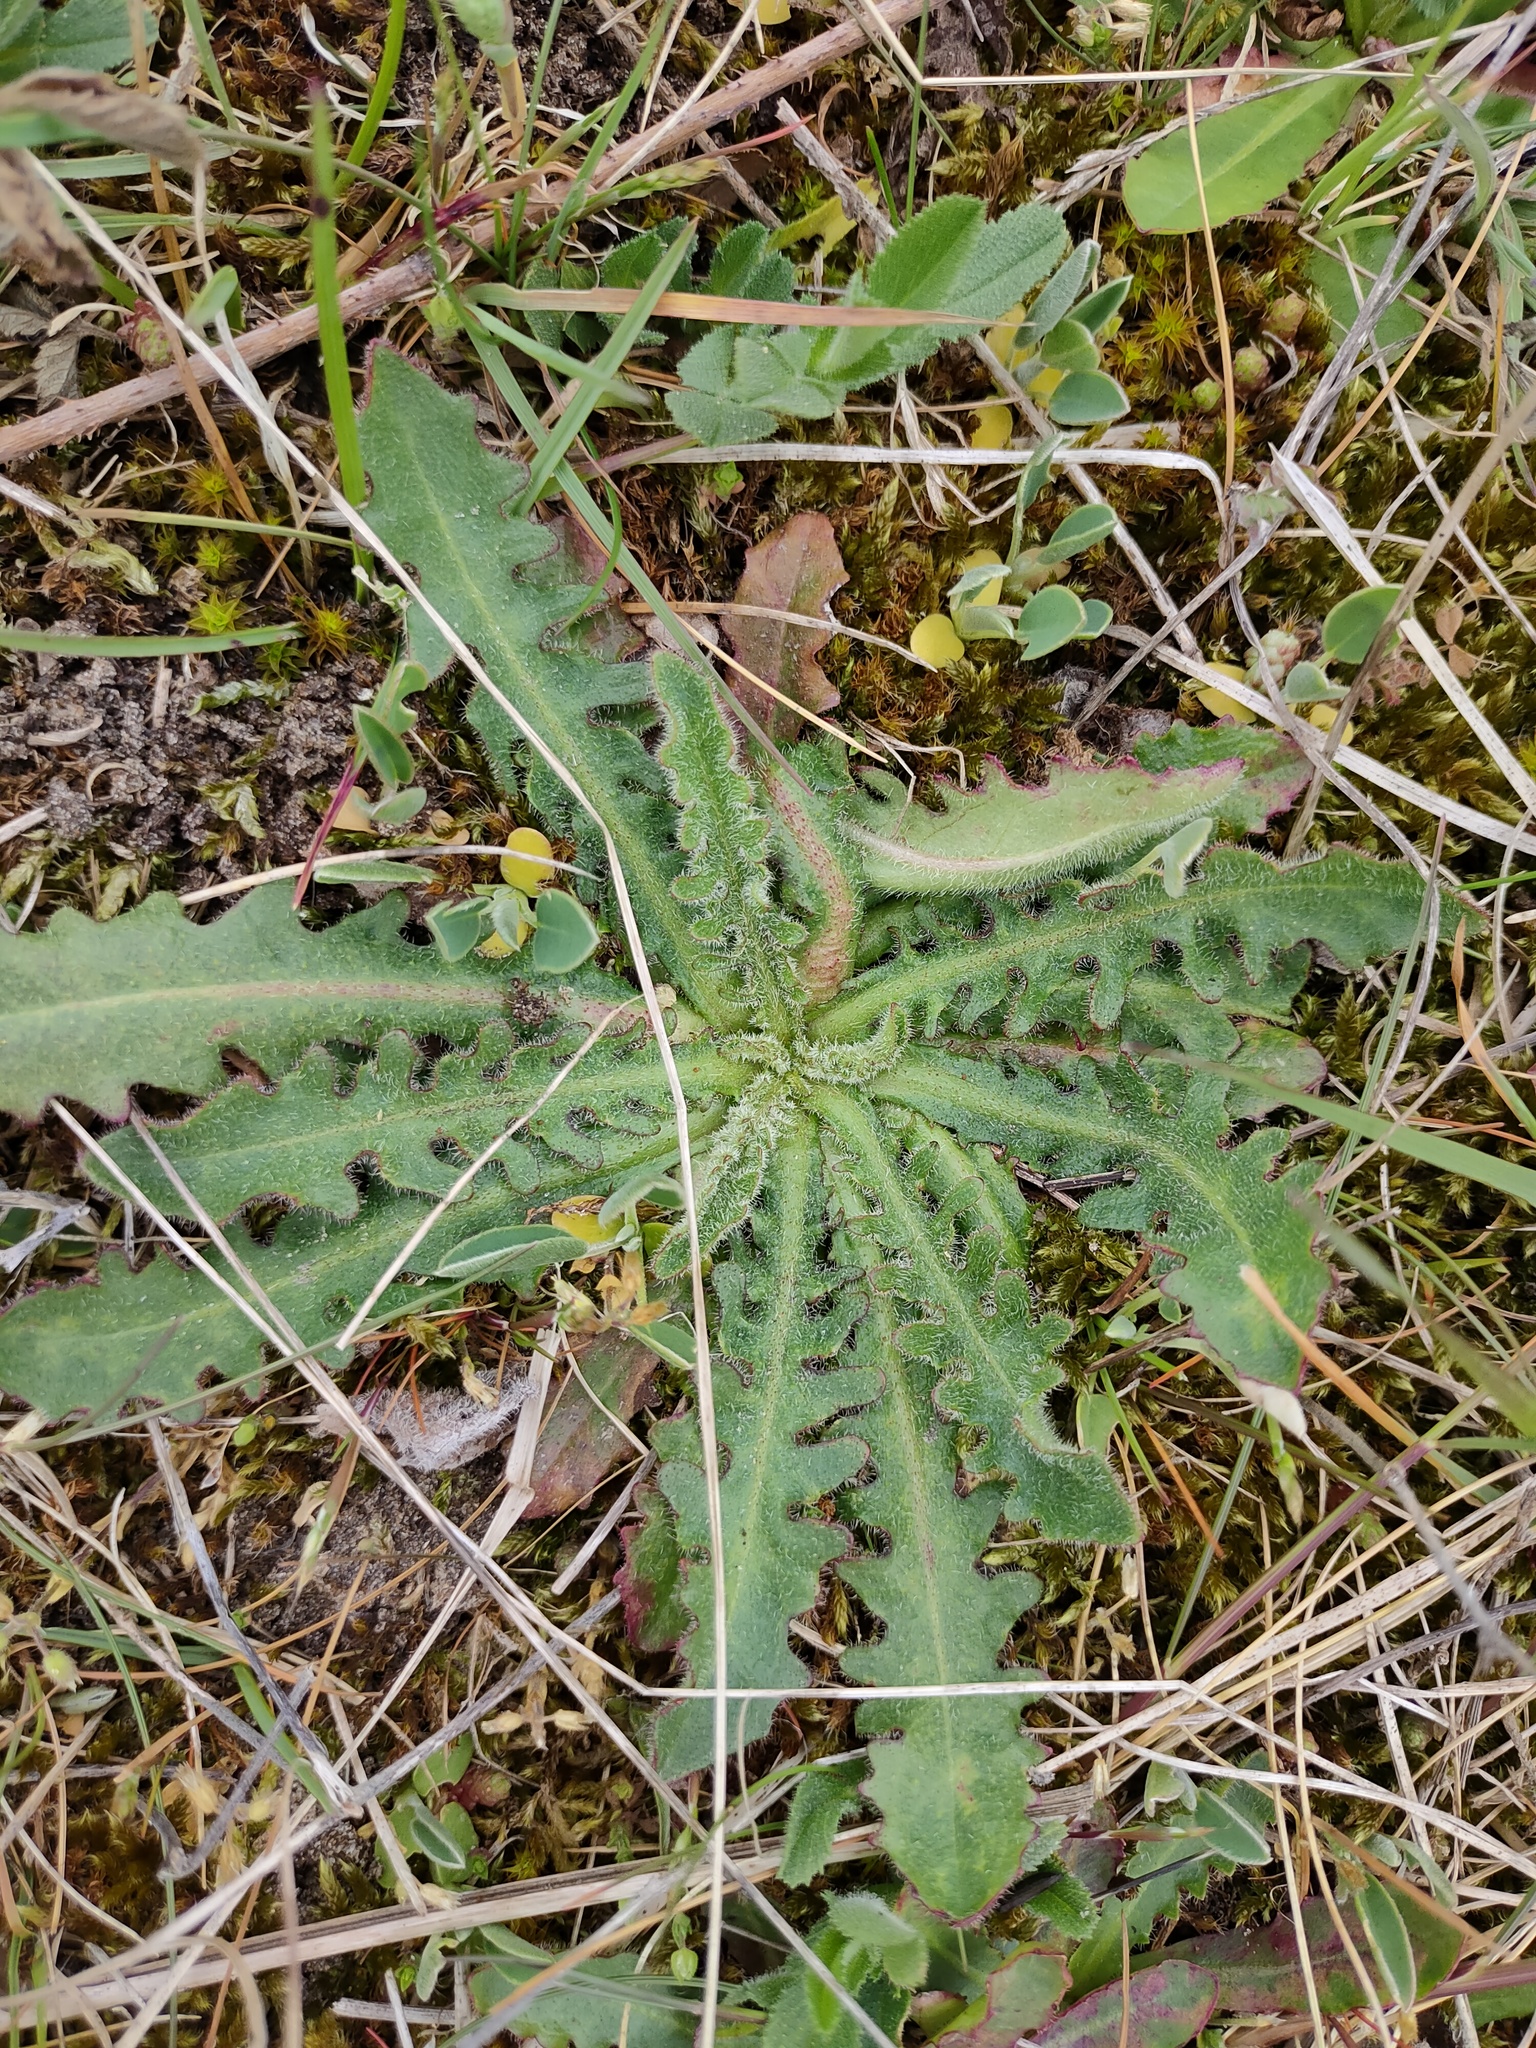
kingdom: Plantae
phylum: Tracheophyta
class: Magnoliopsida
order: Asterales
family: Asteraceae
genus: Hypochaeris
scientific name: Hypochaeris radicata
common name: Flatweed
